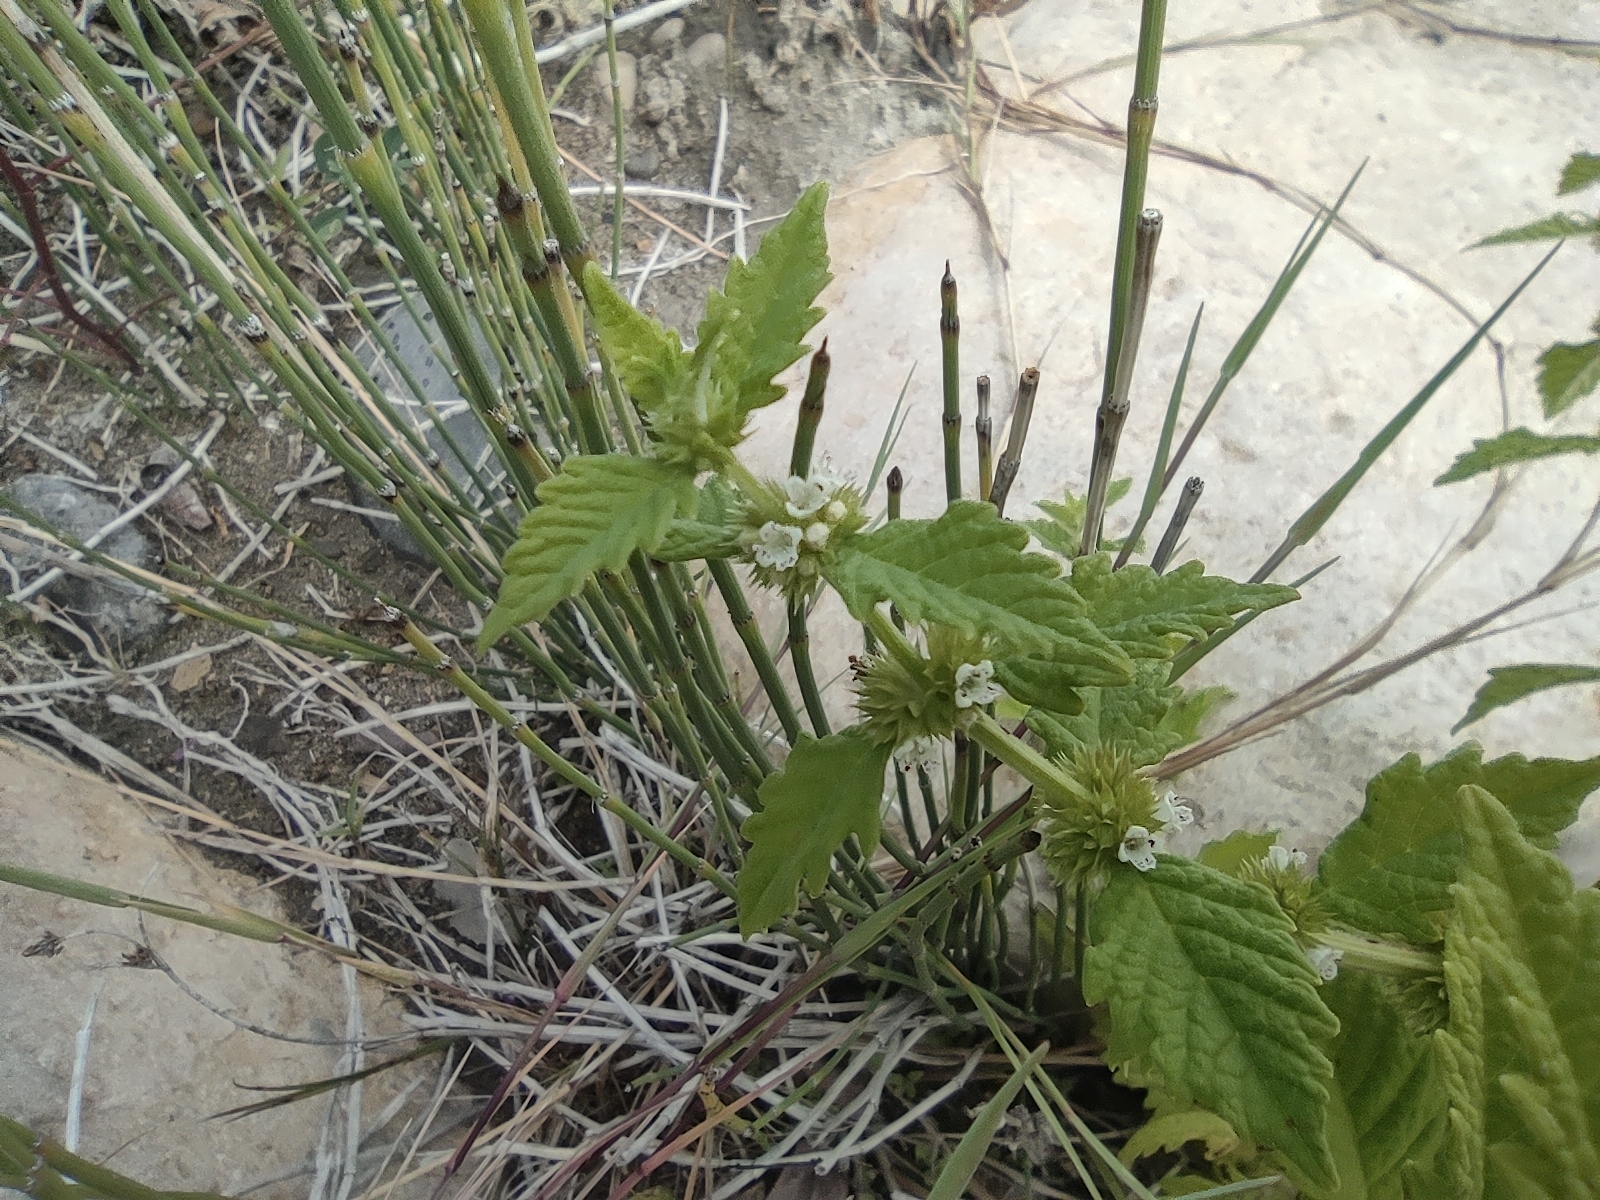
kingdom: Plantae
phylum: Tracheophyta
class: Magnoliopsida
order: Lamiales
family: Lamiaceae
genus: Lycopus
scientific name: Lycopus europaeus
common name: European bugleweed
